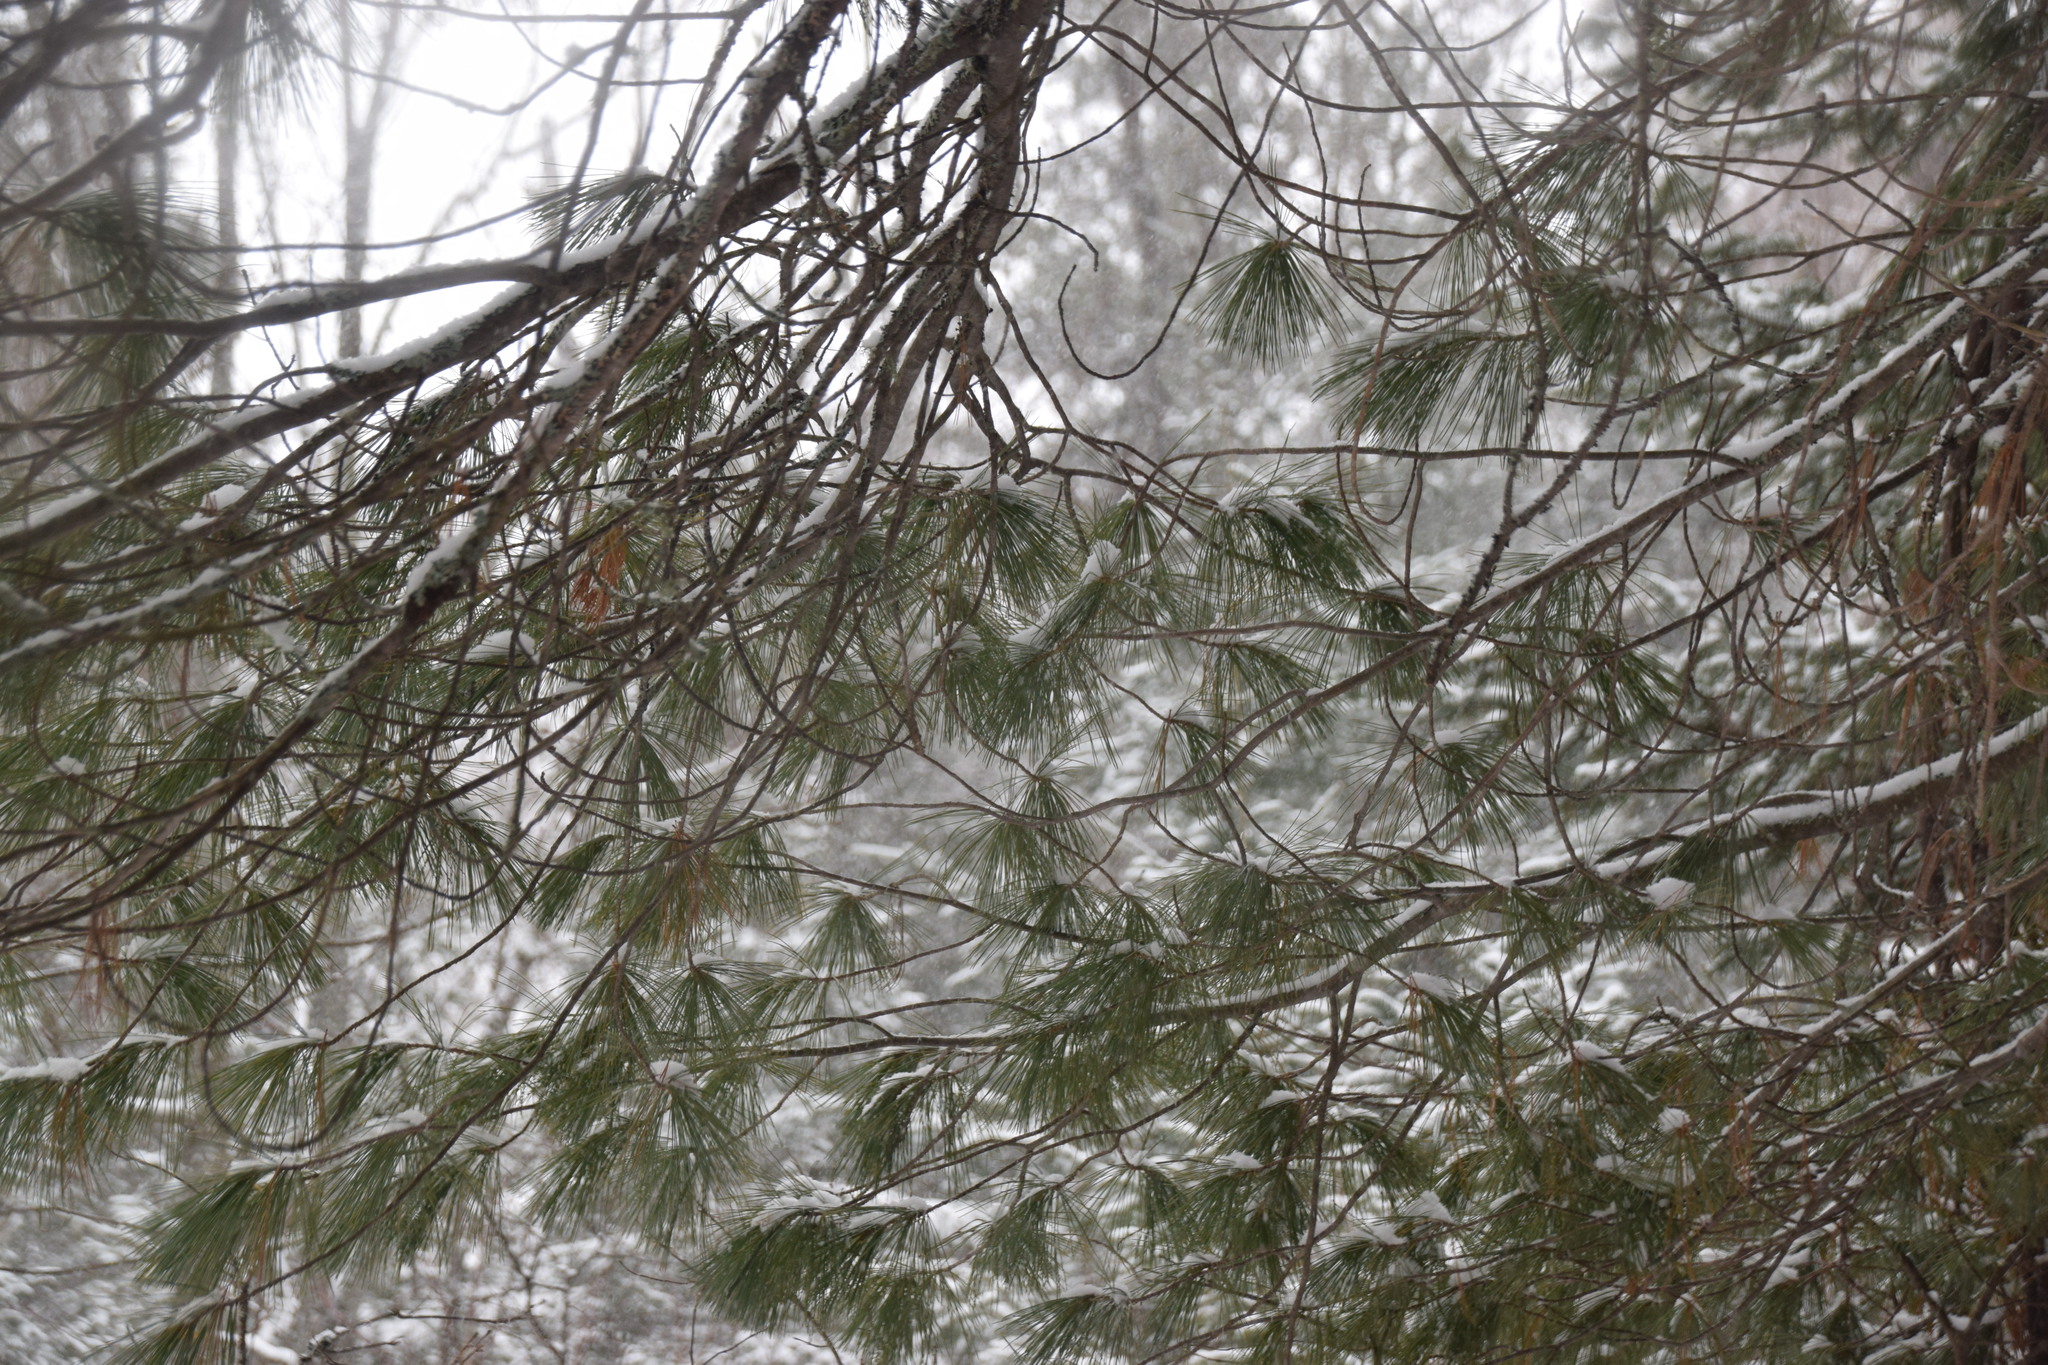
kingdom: Plantae
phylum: Tracheophyta
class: Pinopsida
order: Pinales
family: Pinaceae
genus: Pinus
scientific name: Pinus strobus
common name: Weymouth pine
